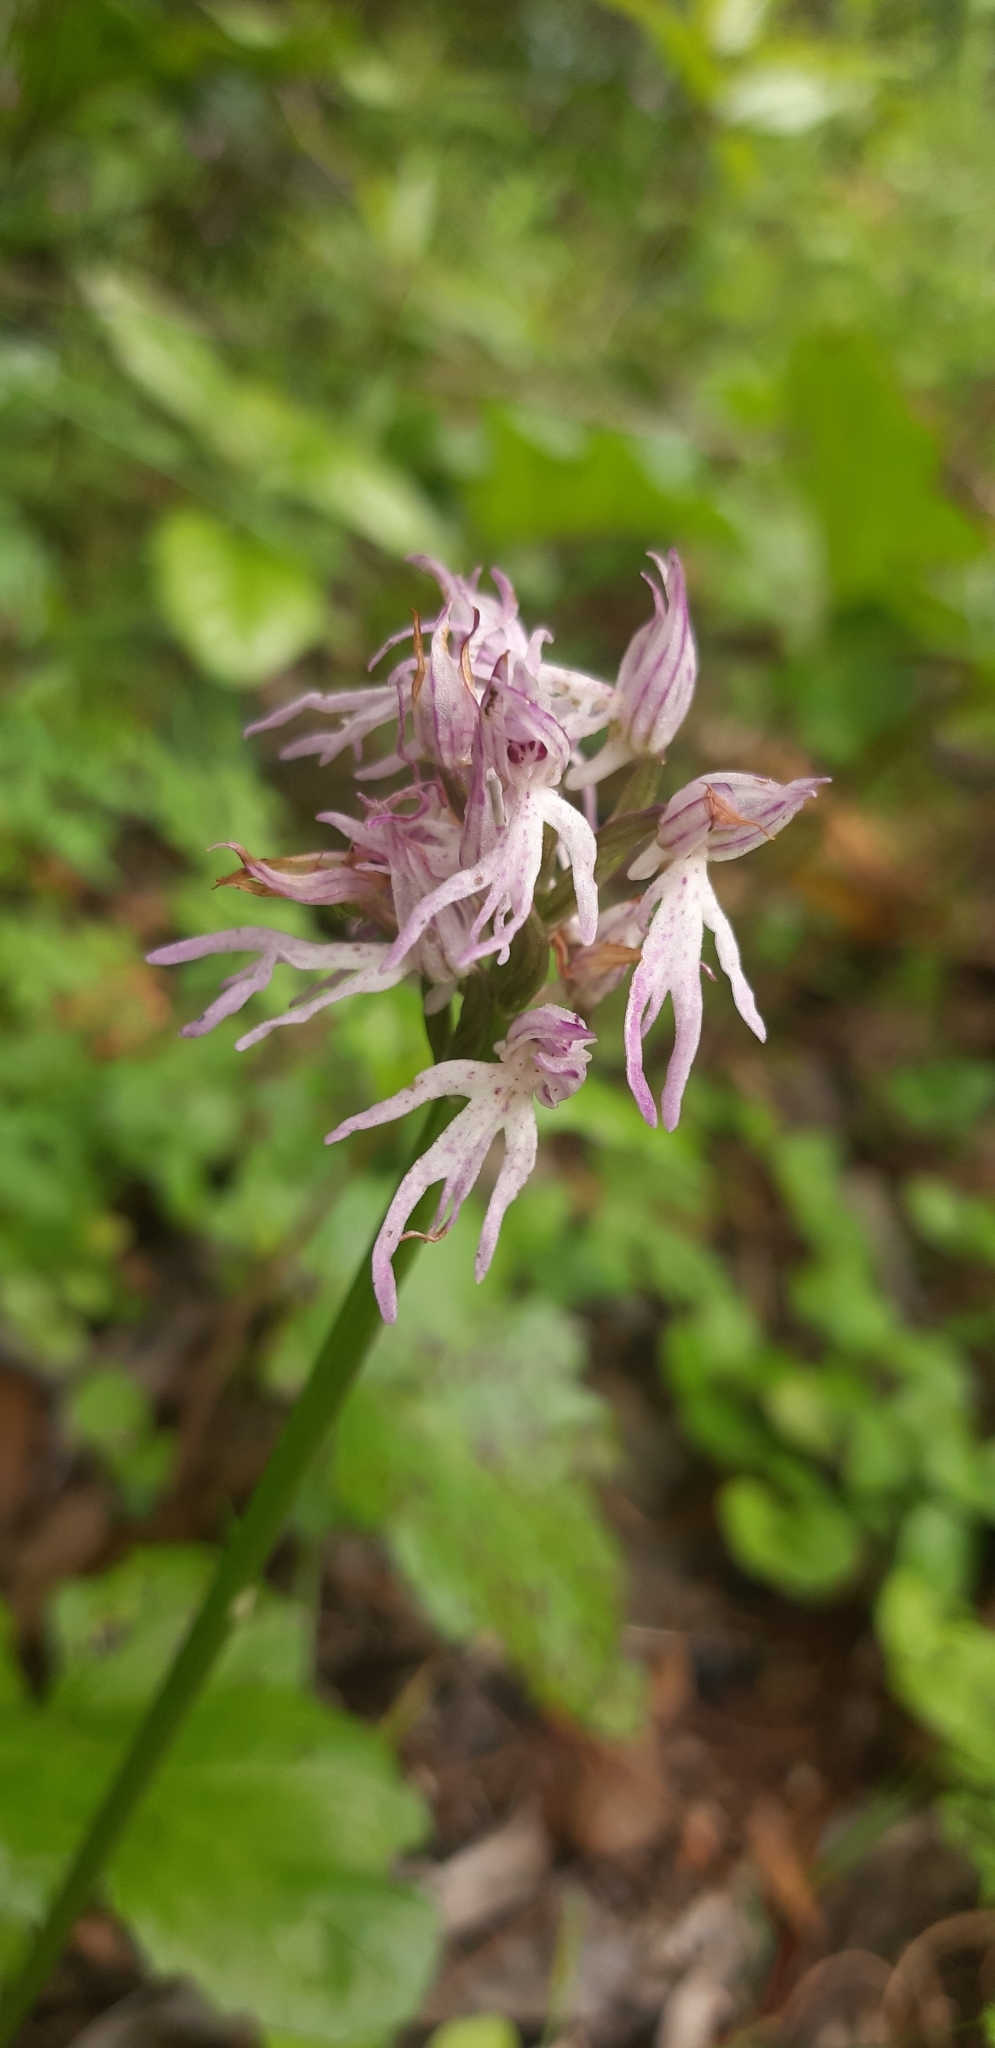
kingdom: Plantae
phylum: Tracheophyta
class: Liliopsida
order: Asparagales
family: Orchidaceae
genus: Orchis
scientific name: Orchis italica
